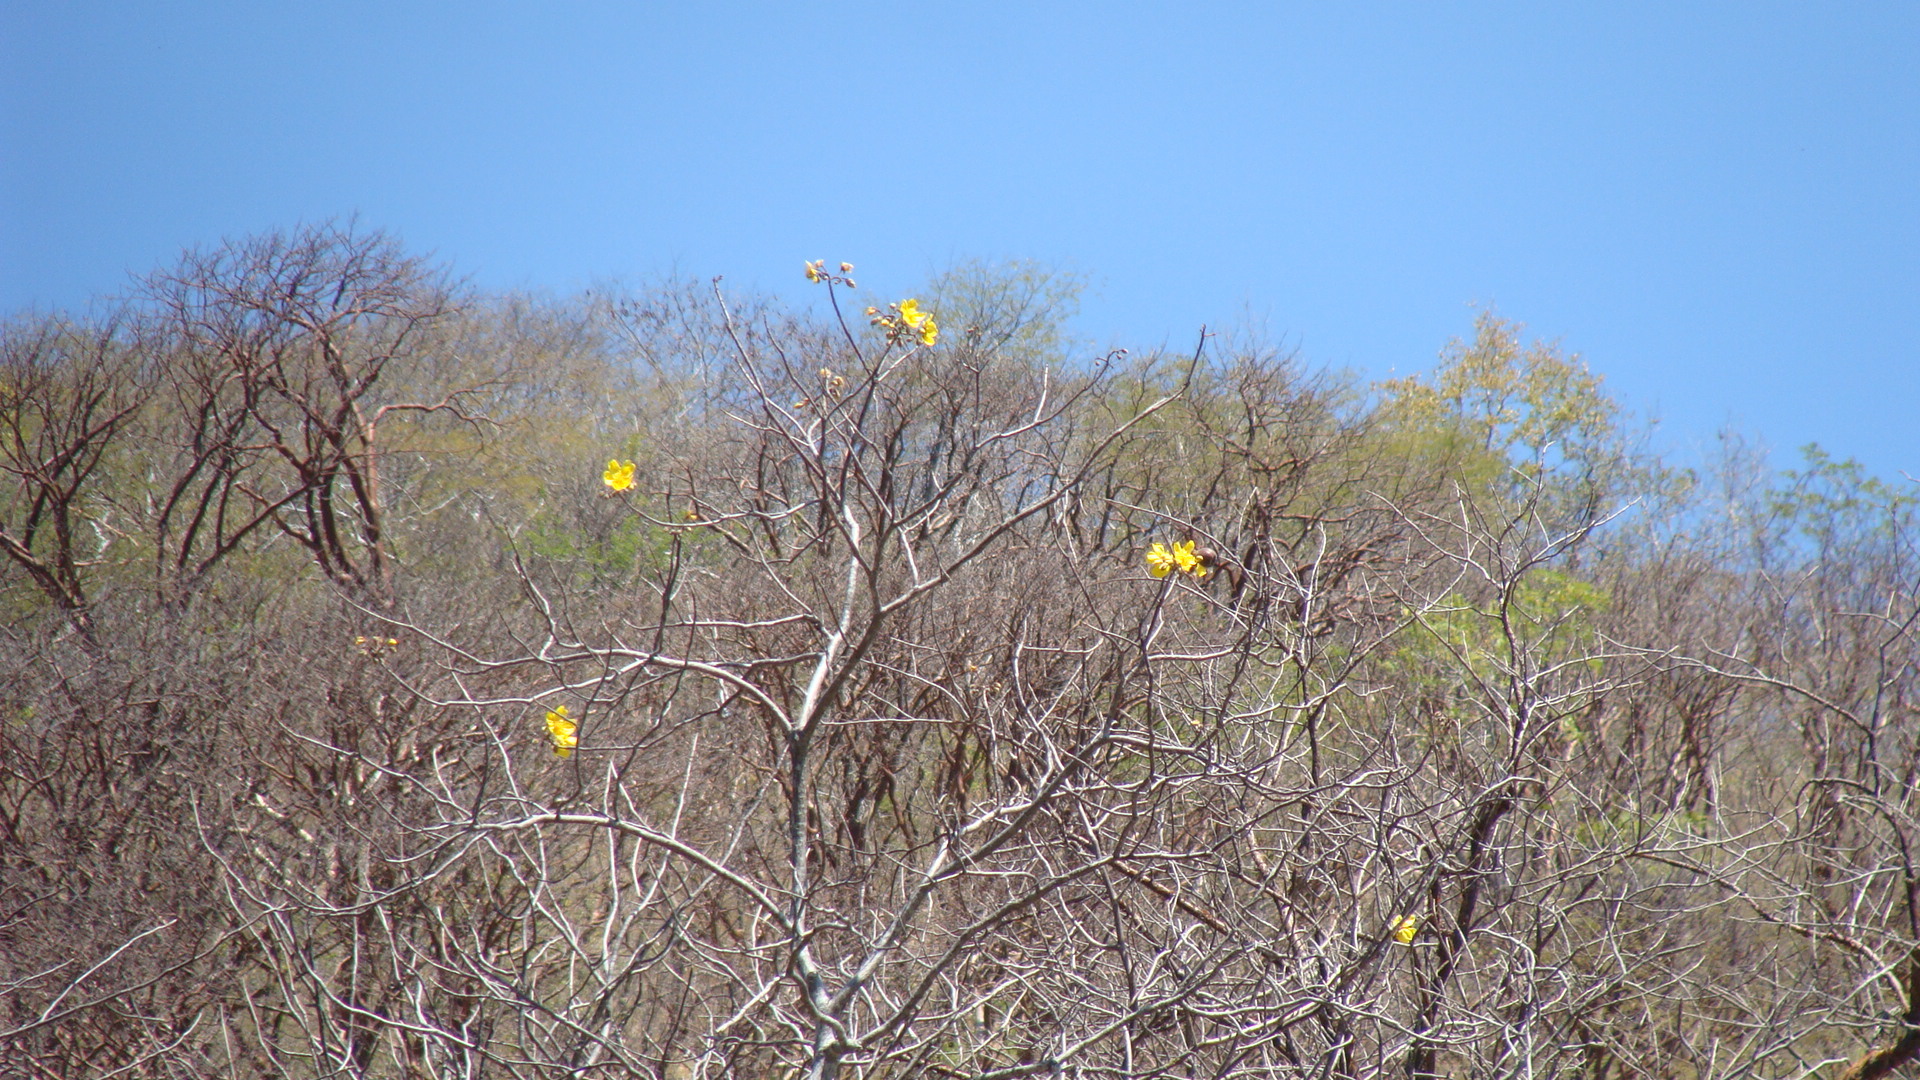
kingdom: Plantae
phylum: Tracheophyta
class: Magnoliopsida
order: Malvales
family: Cochlospermaceae
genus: Cochlospermum
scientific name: Cochlospermum vitifolium
